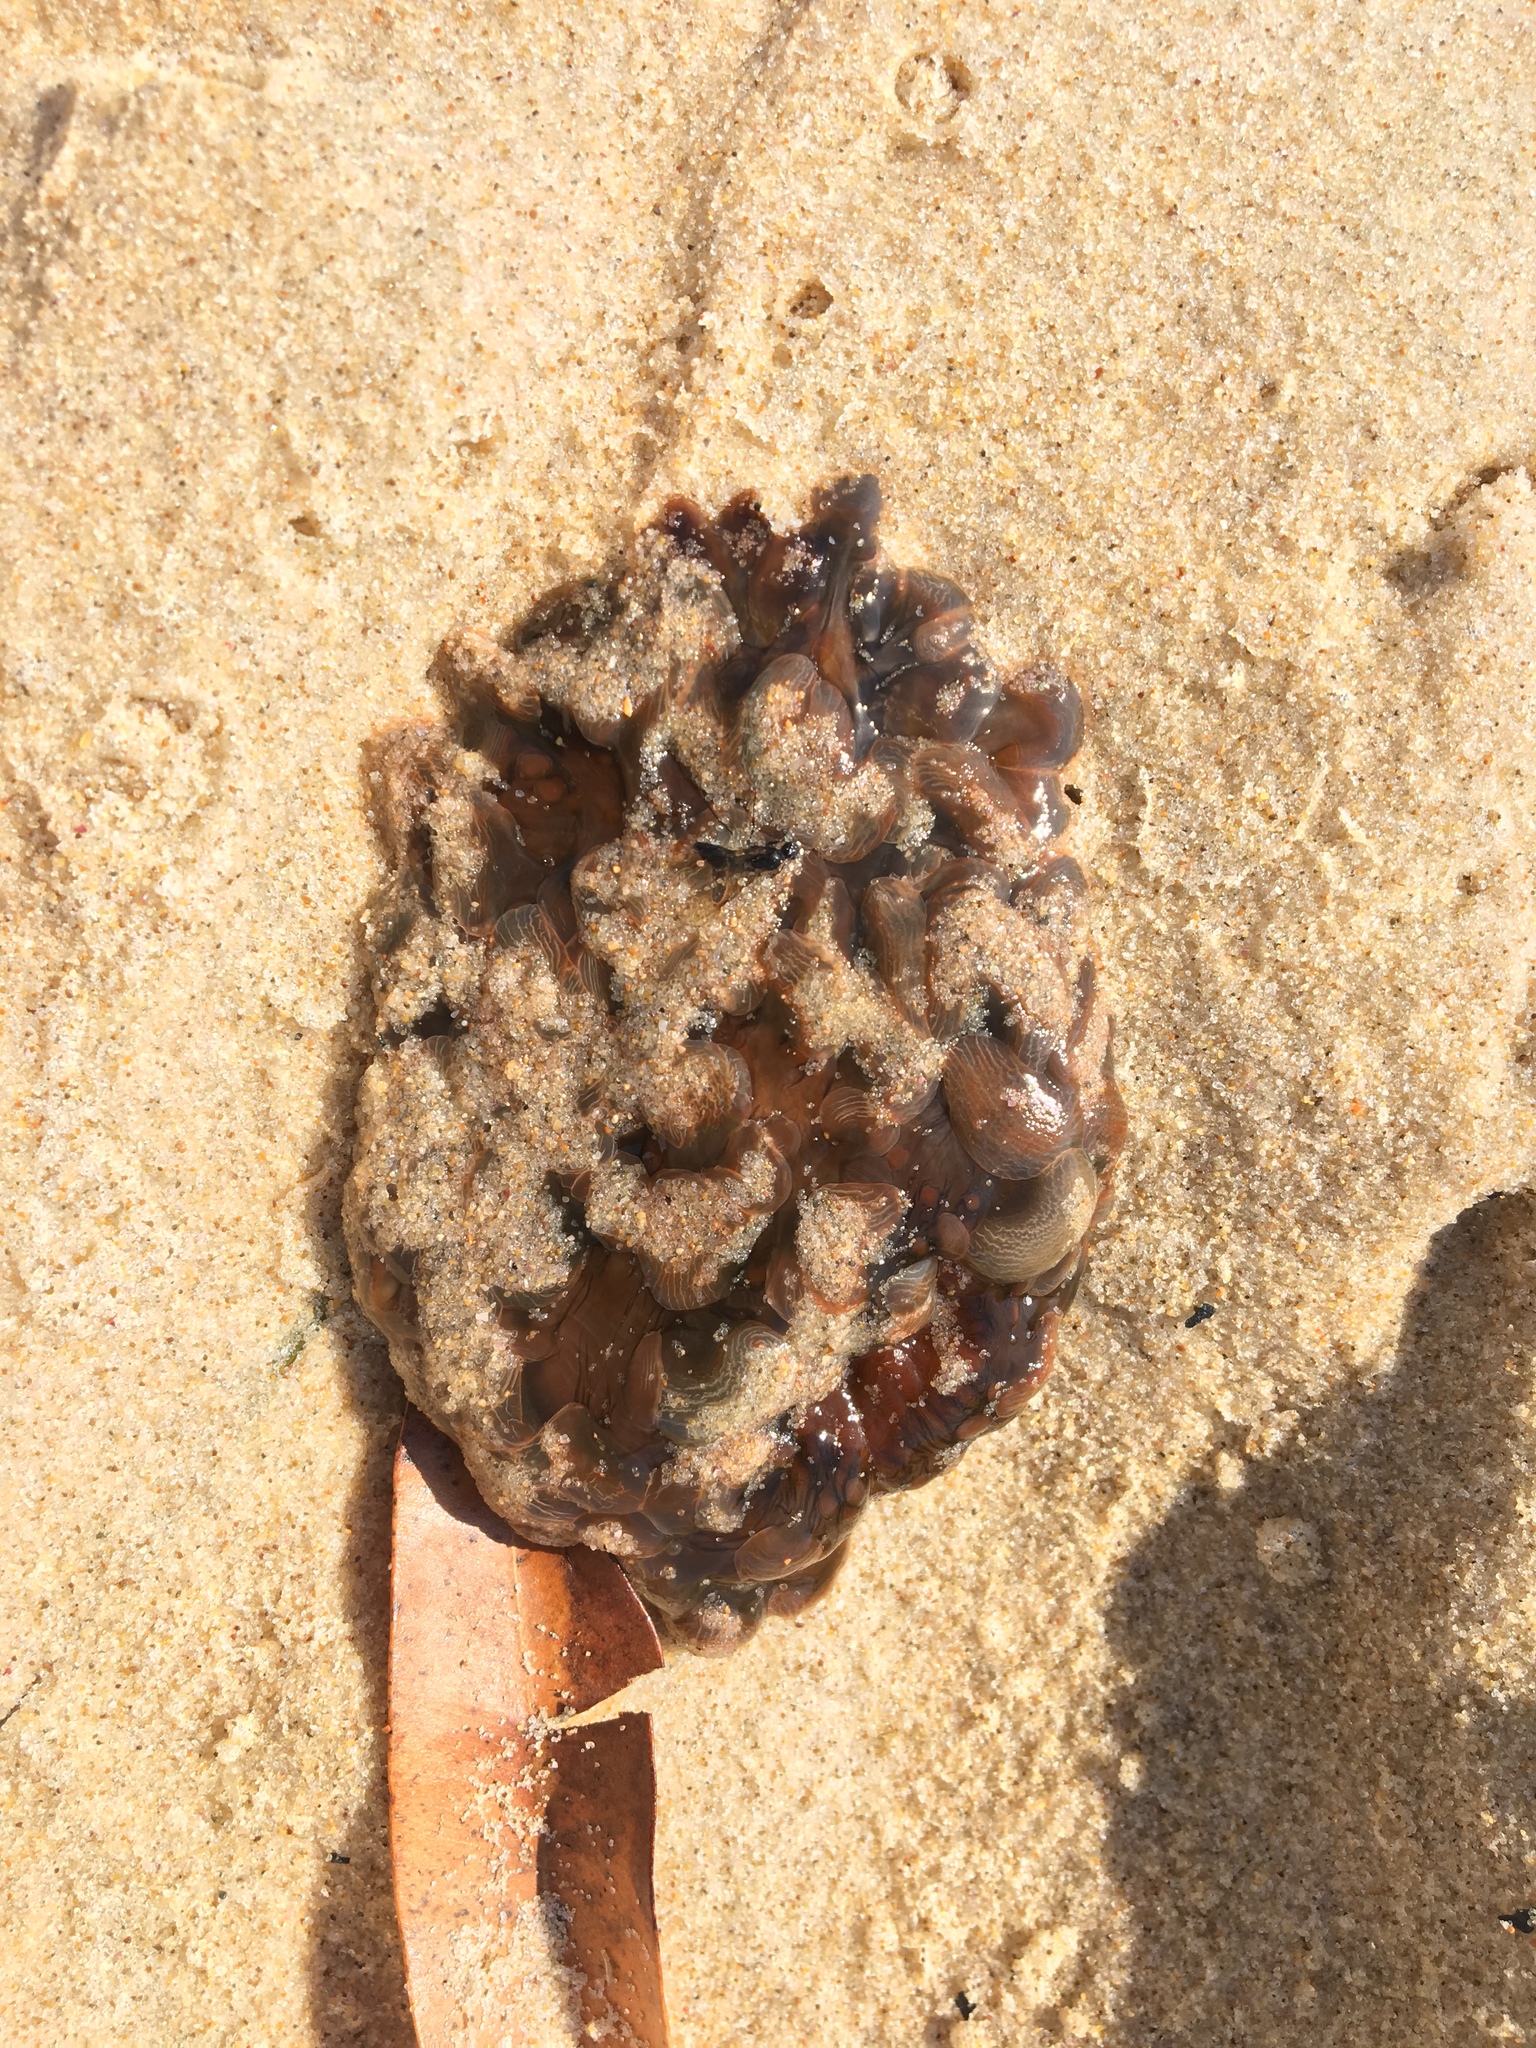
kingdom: Animalia
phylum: Cnidaria
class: Anthozoa
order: Actiniaria
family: Actiniidae
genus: Phlyctenactis
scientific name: Phlyctenactis tuberculosa
